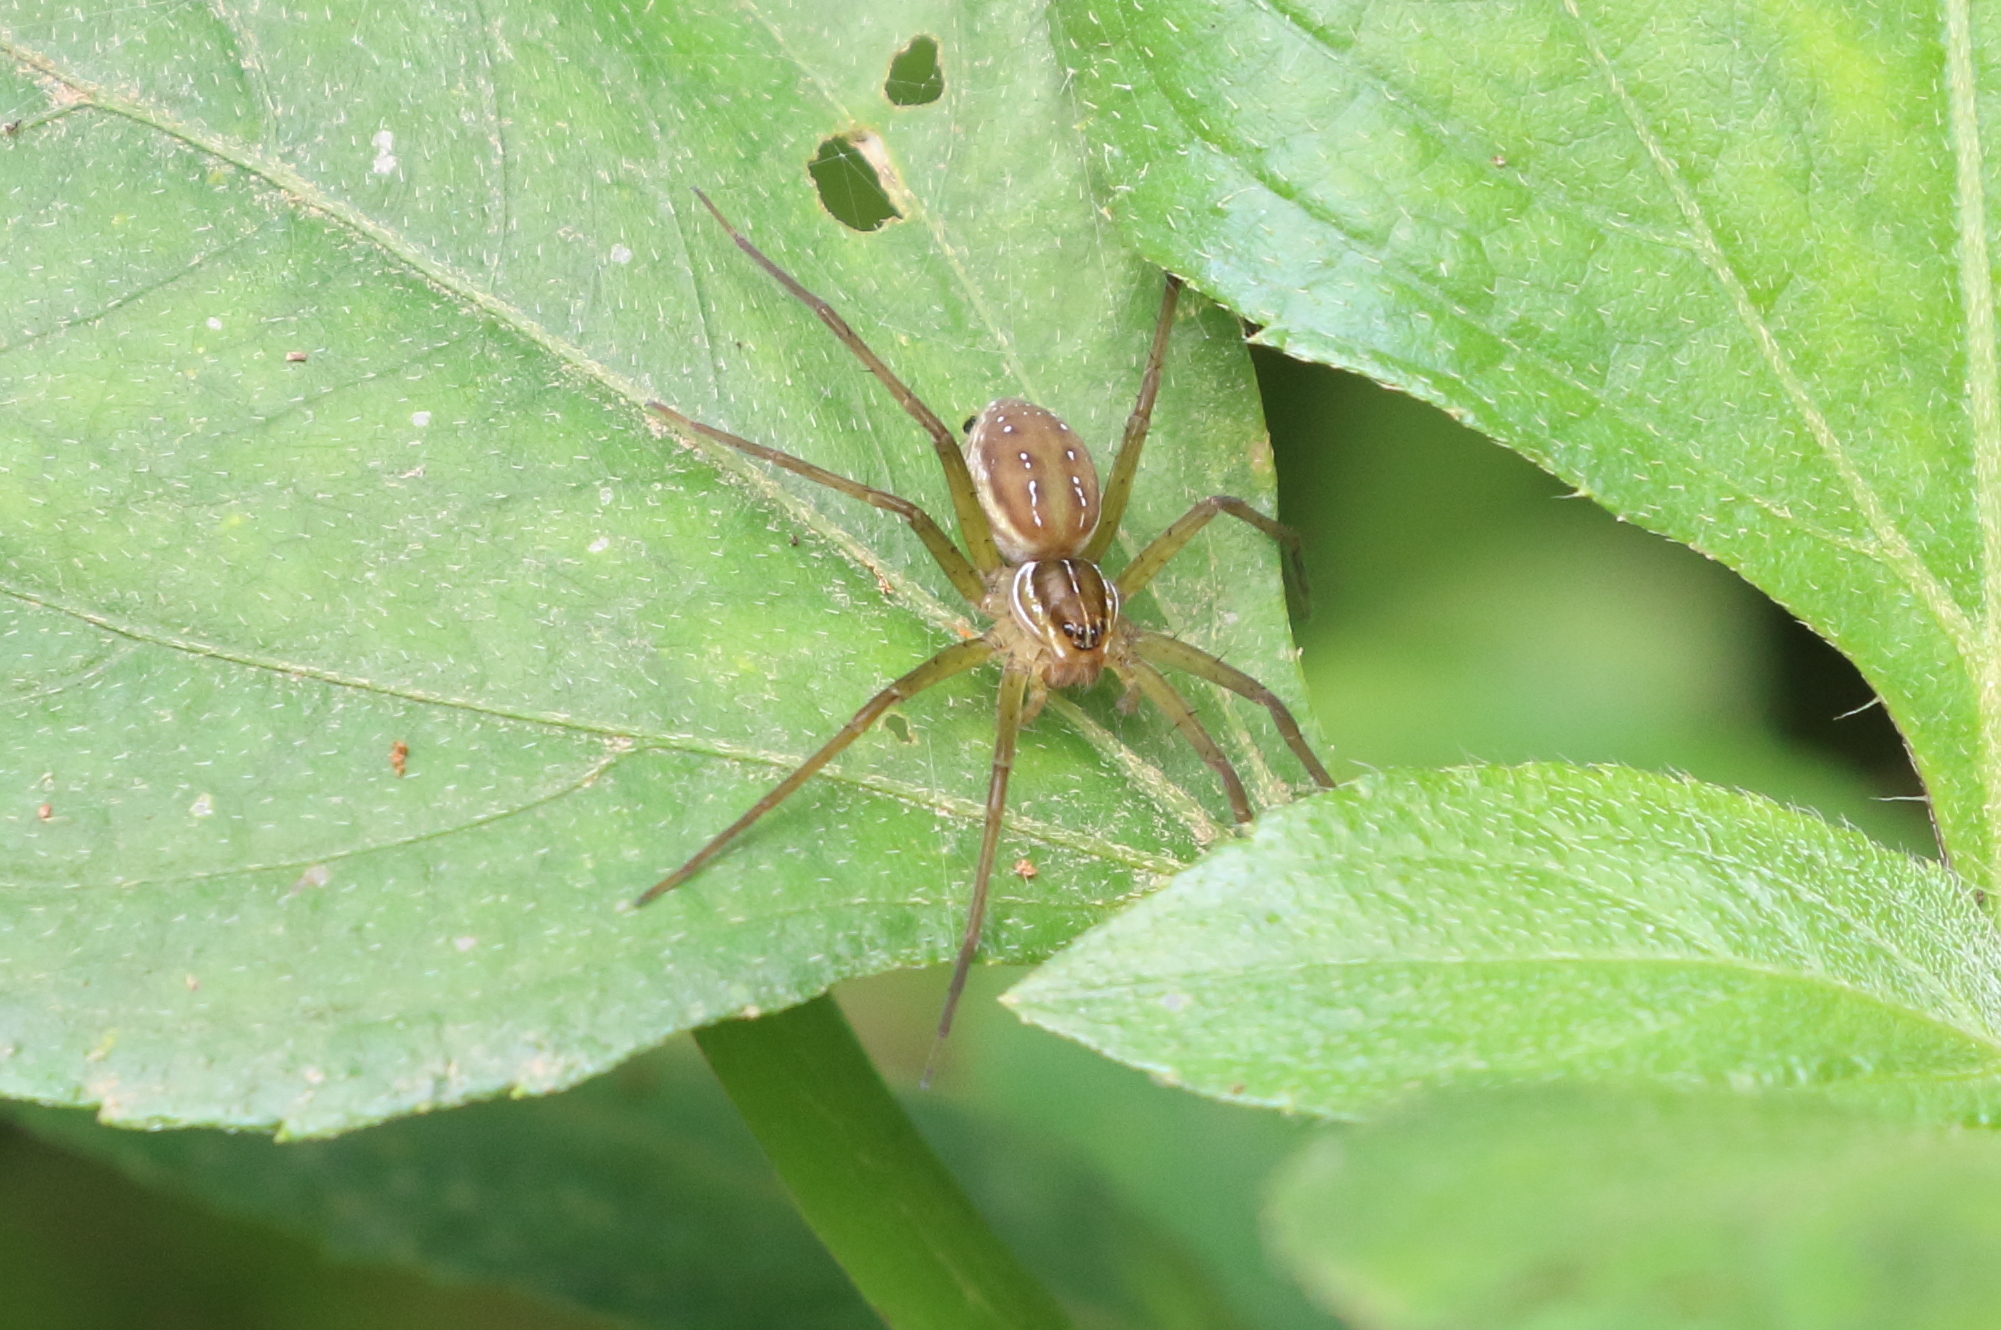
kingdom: Animalia
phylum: Arthropoda
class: Arachnida
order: Araneae
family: Pisauridae
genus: Dolomedes
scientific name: Dolomedes facetus
